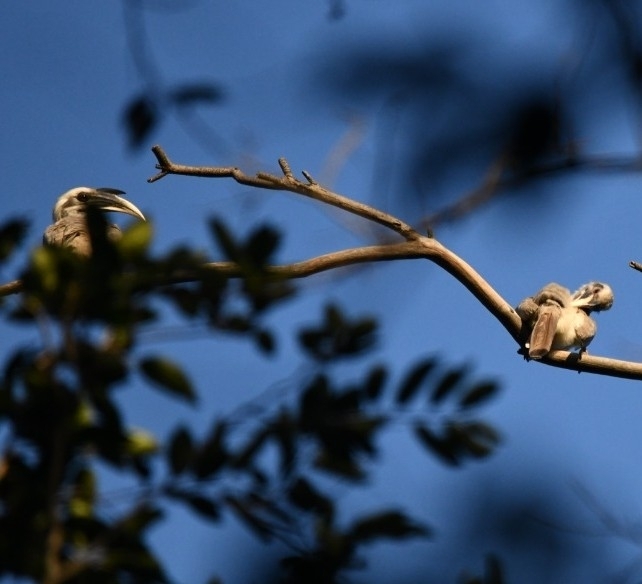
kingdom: Animalia
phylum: Chordata
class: Aves
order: Bucerotiformes
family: Bucerotidae
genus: Ocyceros
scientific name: Ocyceros birostris
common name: Indian grey hornbill
